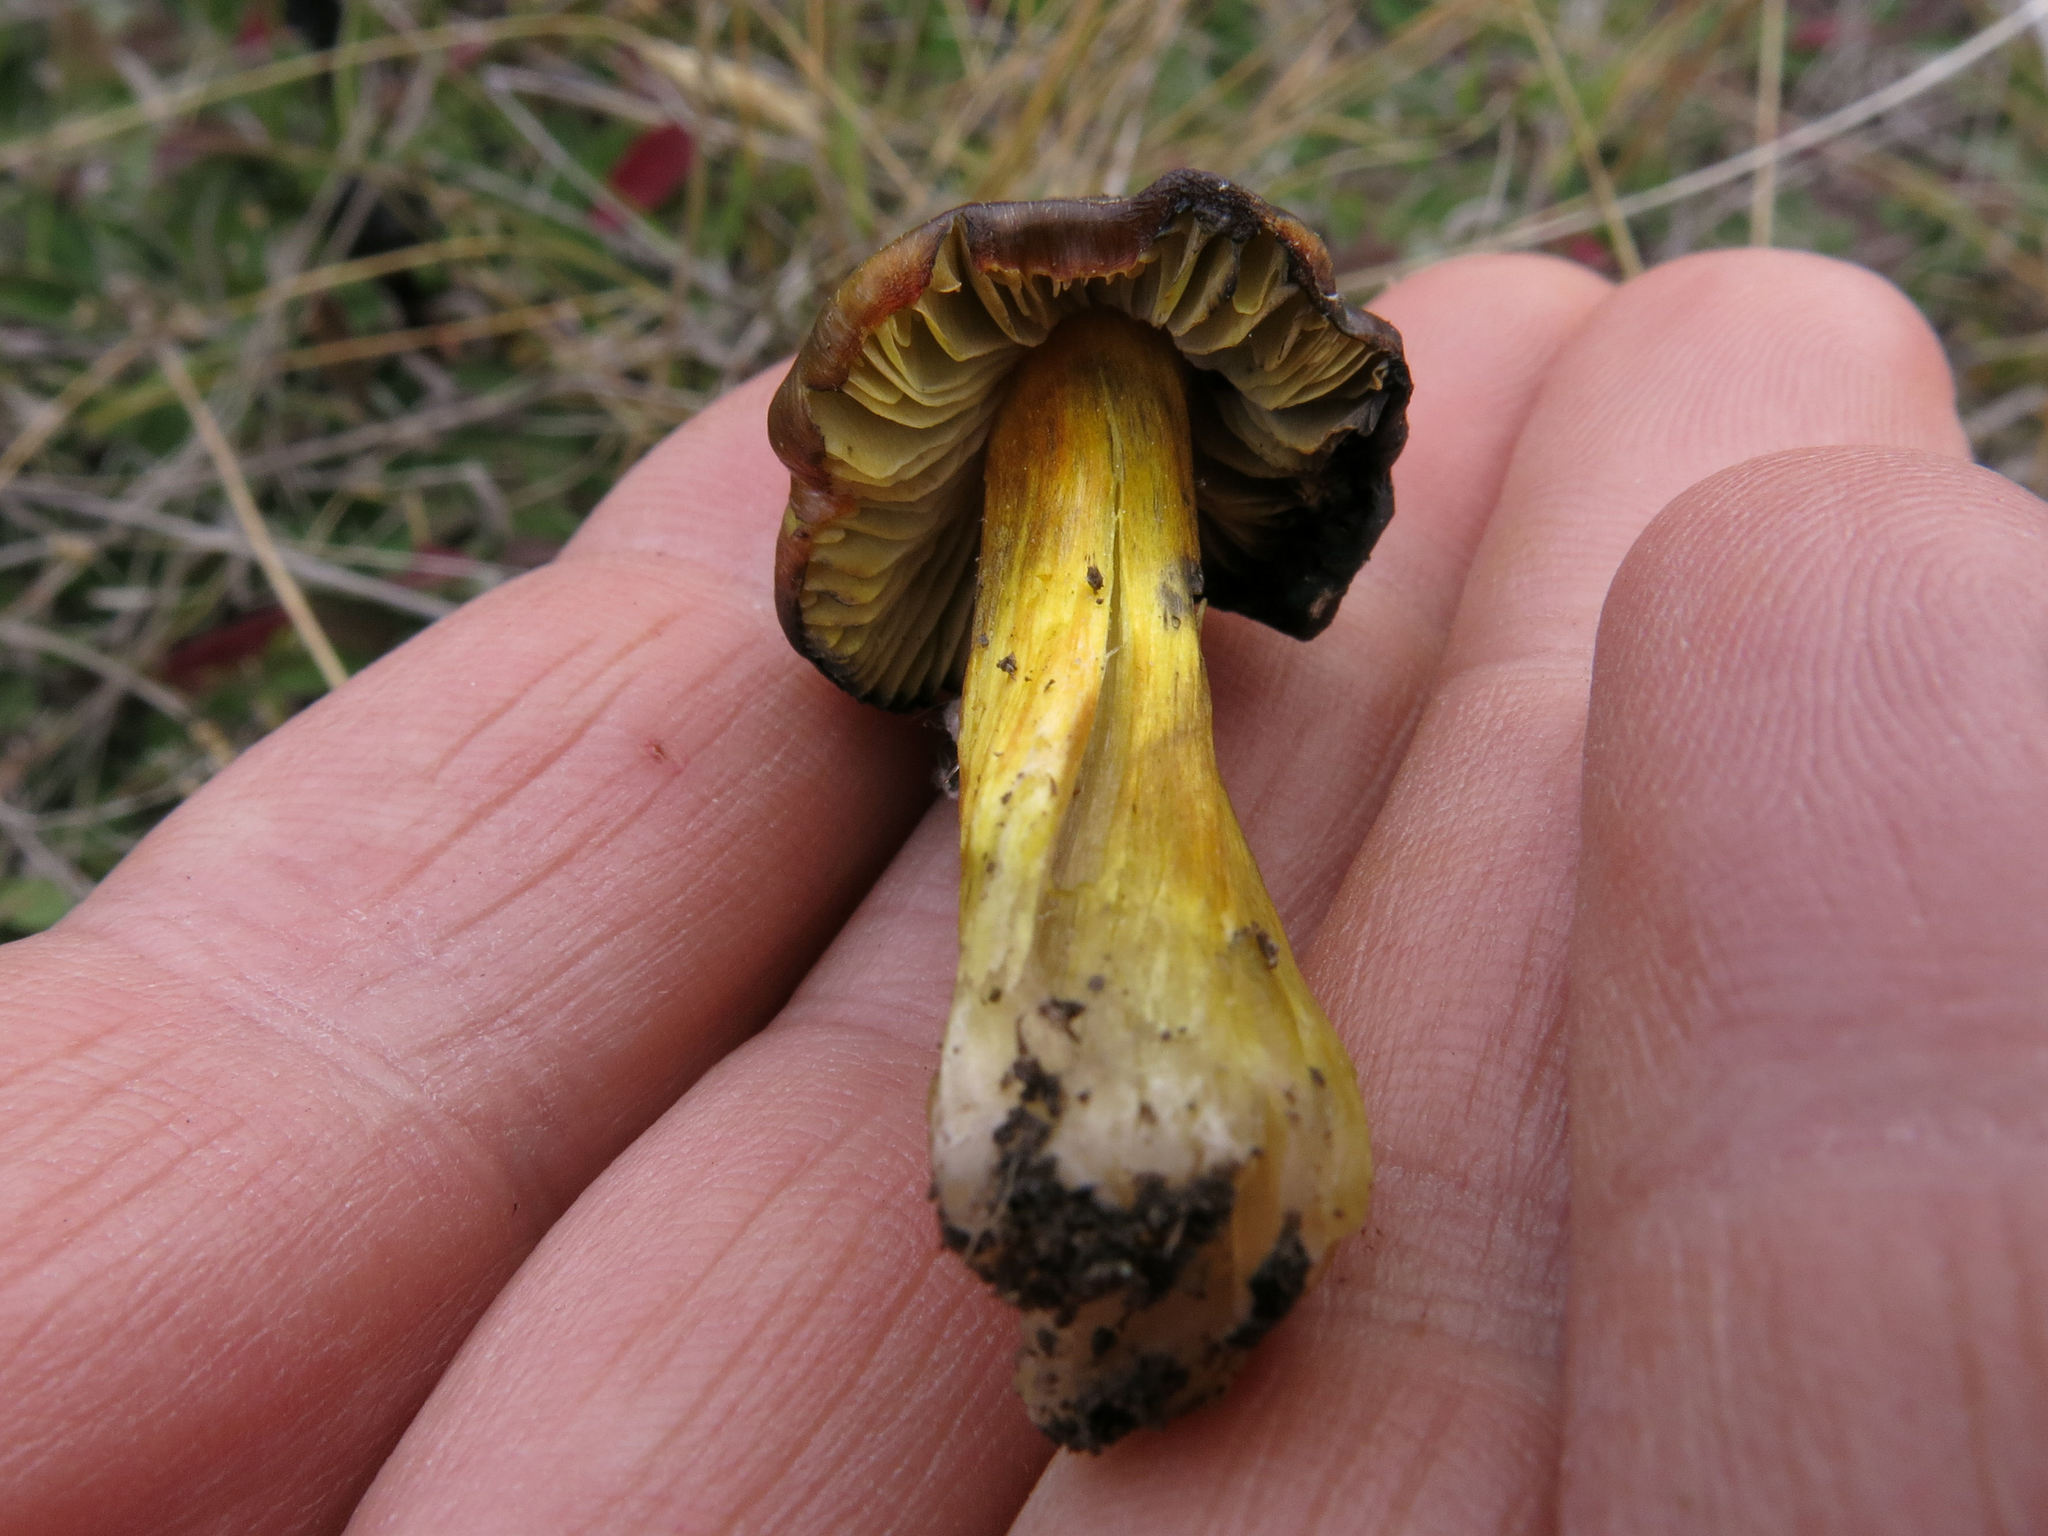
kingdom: Fungi
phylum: Basidiomycota
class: Agaricomycetes
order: Agaricales
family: Hygrophoraceae
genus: Hygrocybe
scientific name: Hygrocybe conica
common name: Blackening wax-cap
